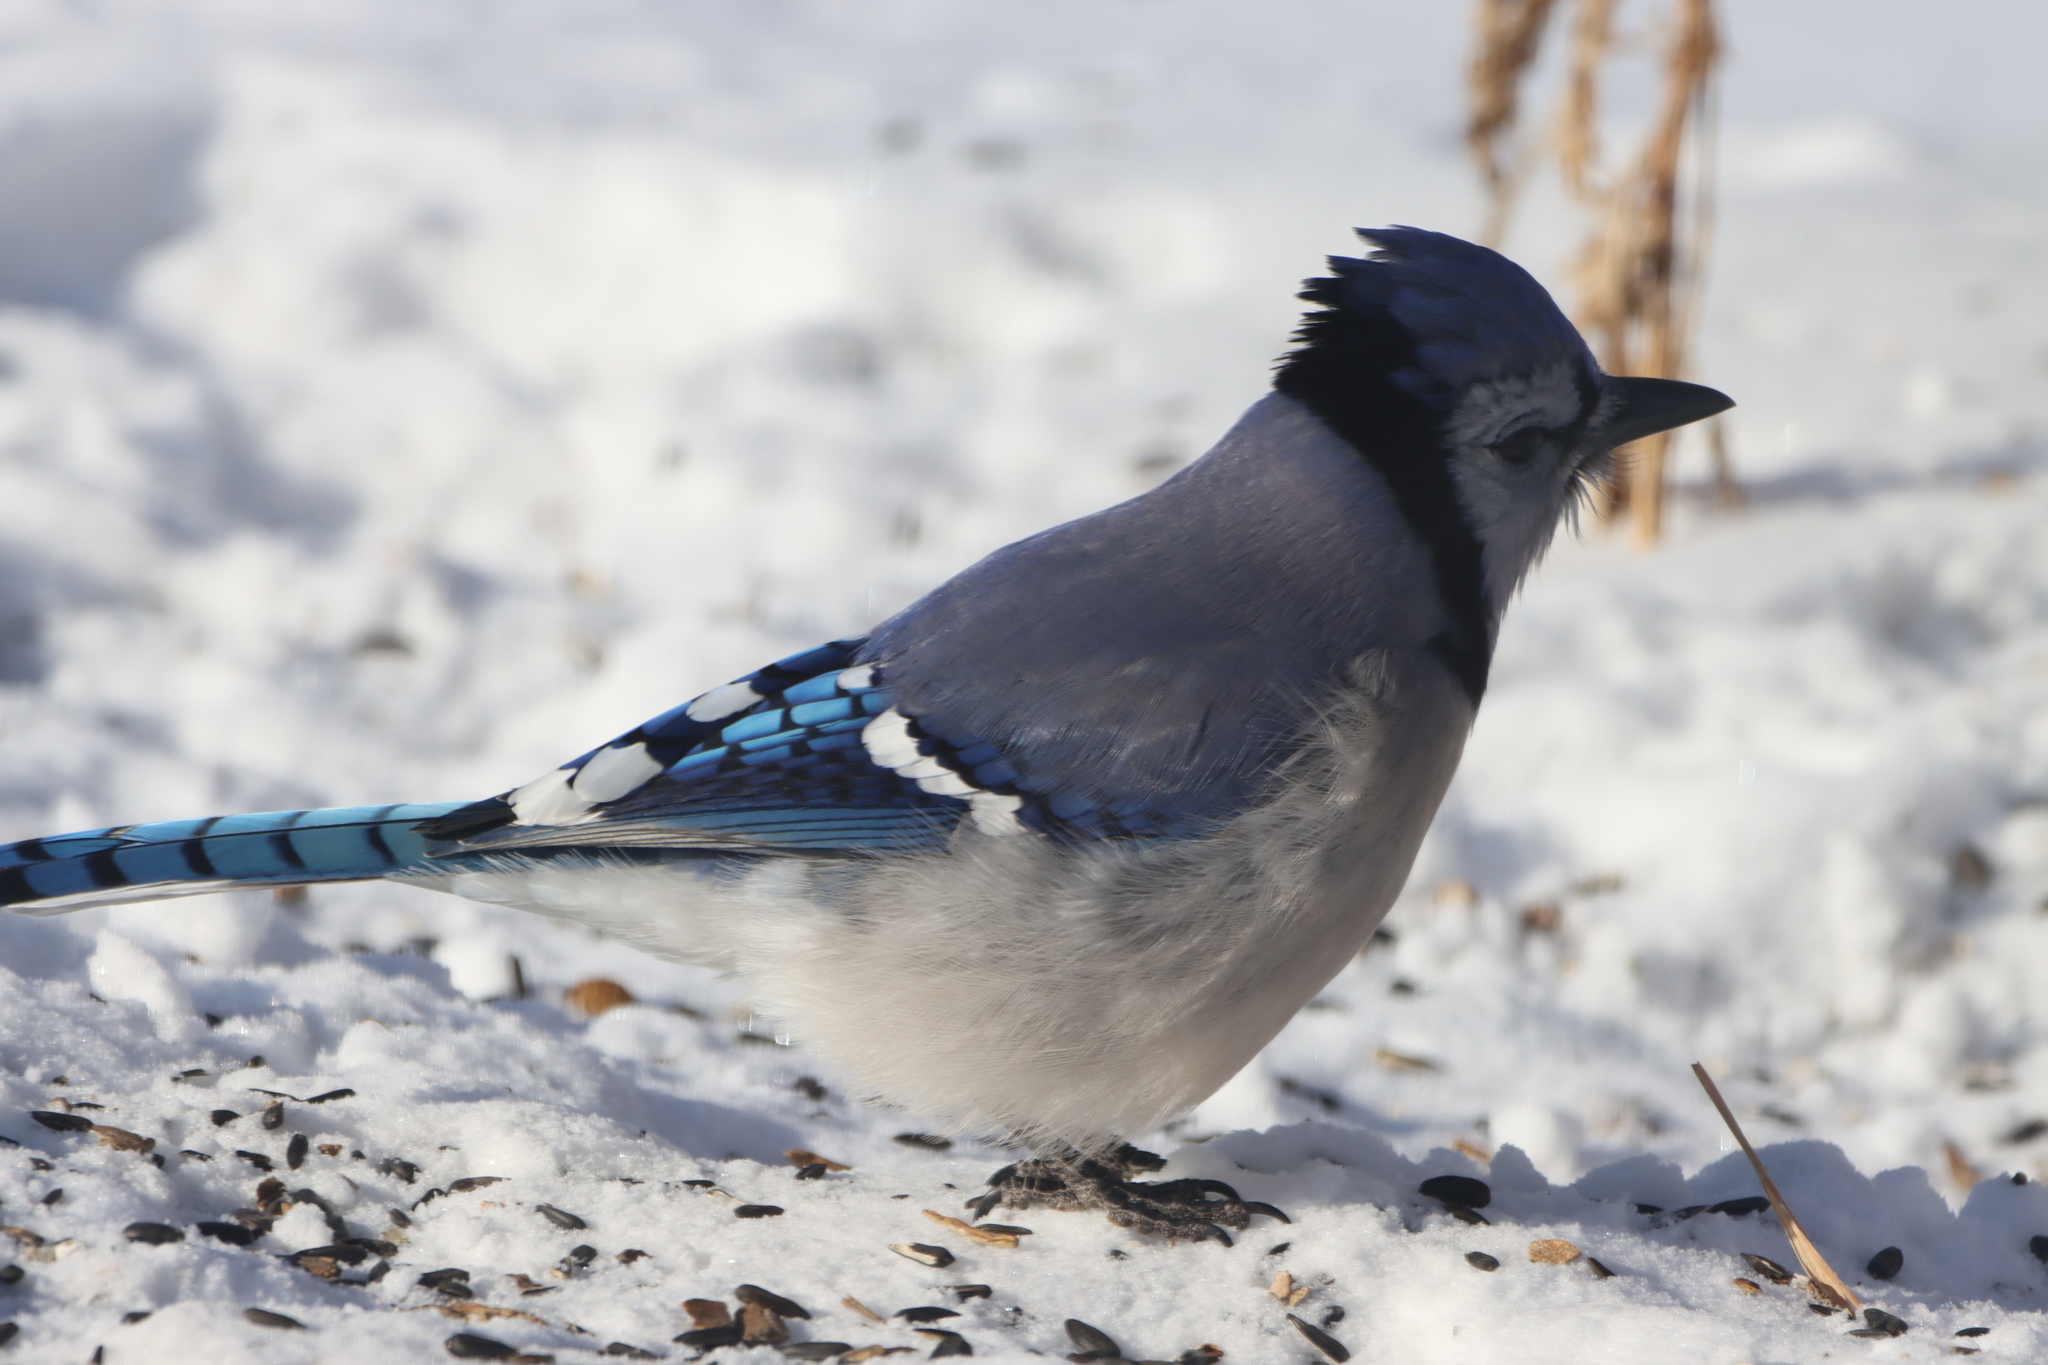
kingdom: Animalia
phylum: Chordata
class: Aves
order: Passeriformes
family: Corvidae
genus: Cyanocitta
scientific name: Cyanocitta cristata
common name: Blue jay
